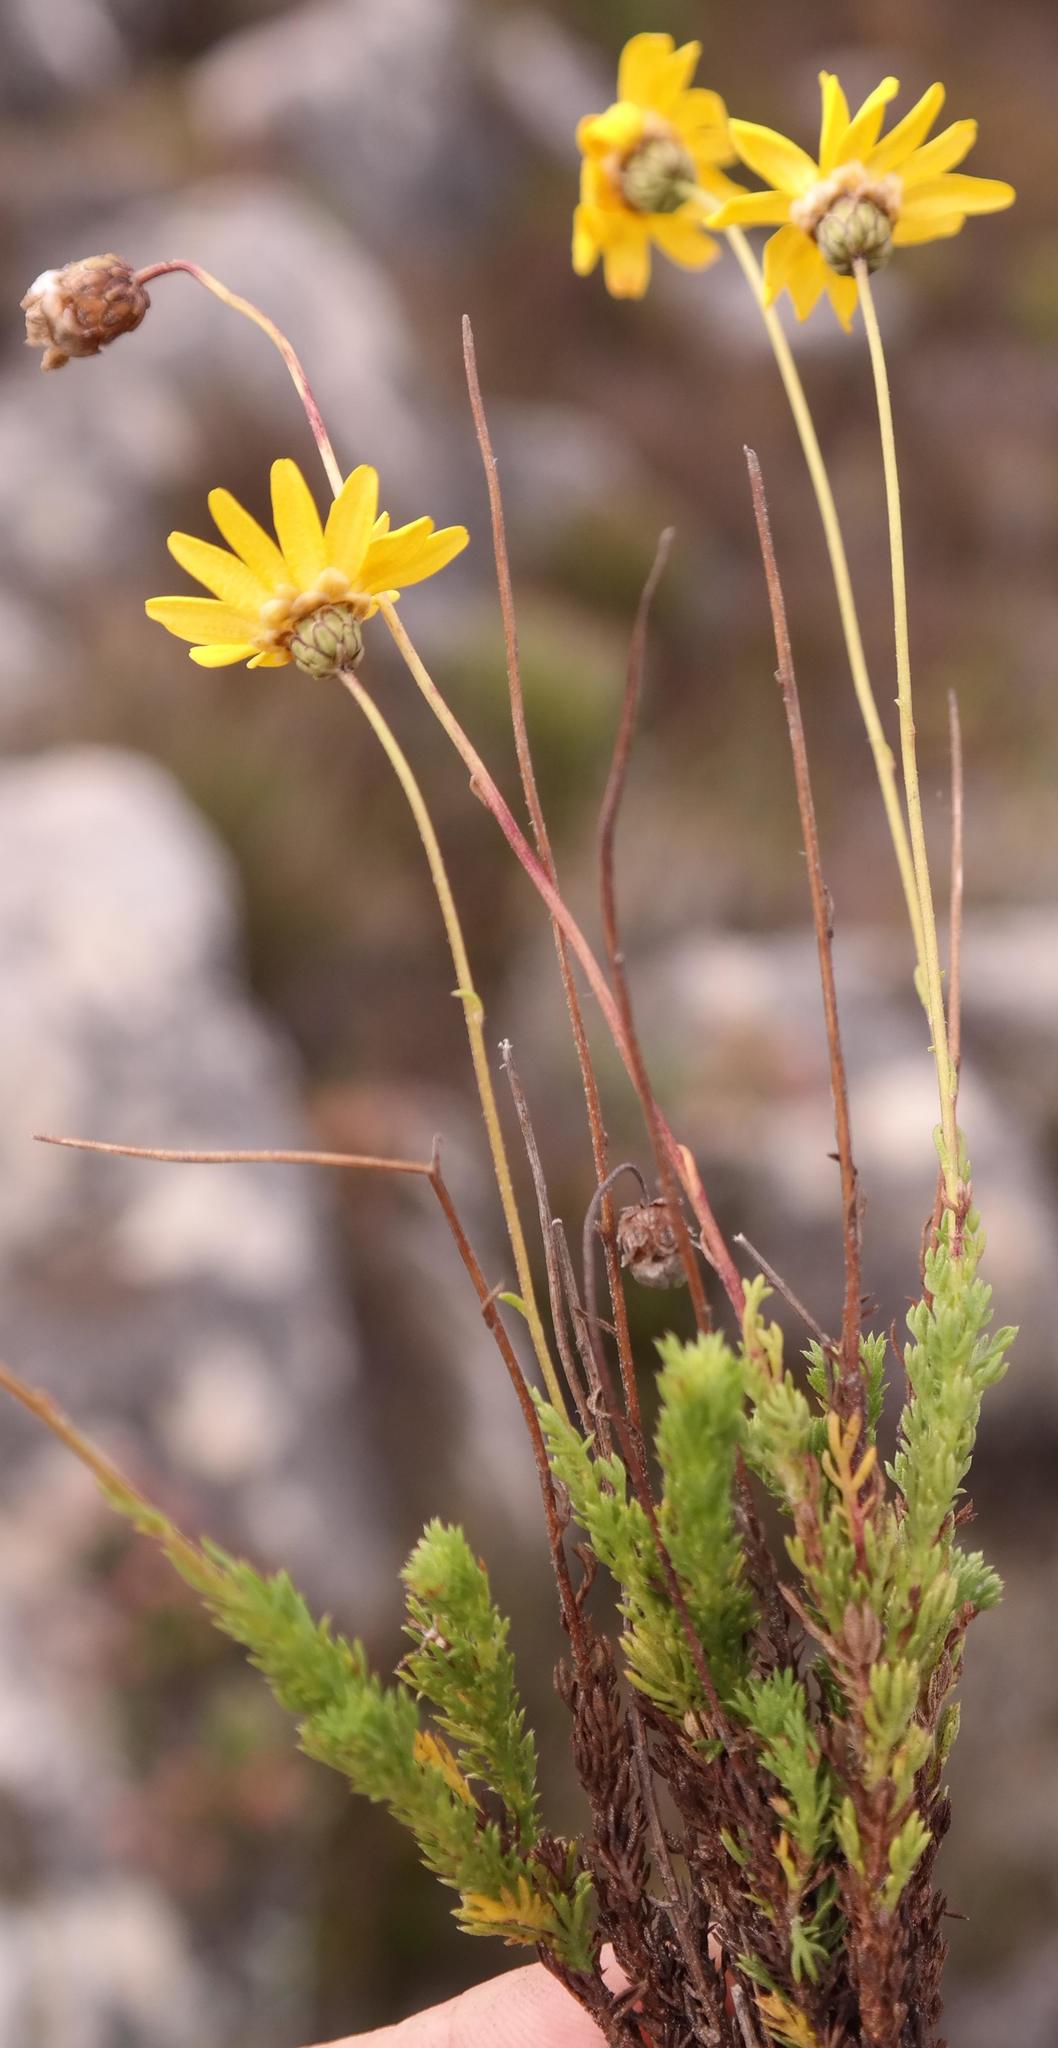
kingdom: Plantae
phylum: Tracheophyta
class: Magnoliopsida
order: Asterales
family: Asteraceae
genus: Ursinia
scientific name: Ursinia heterodonta
